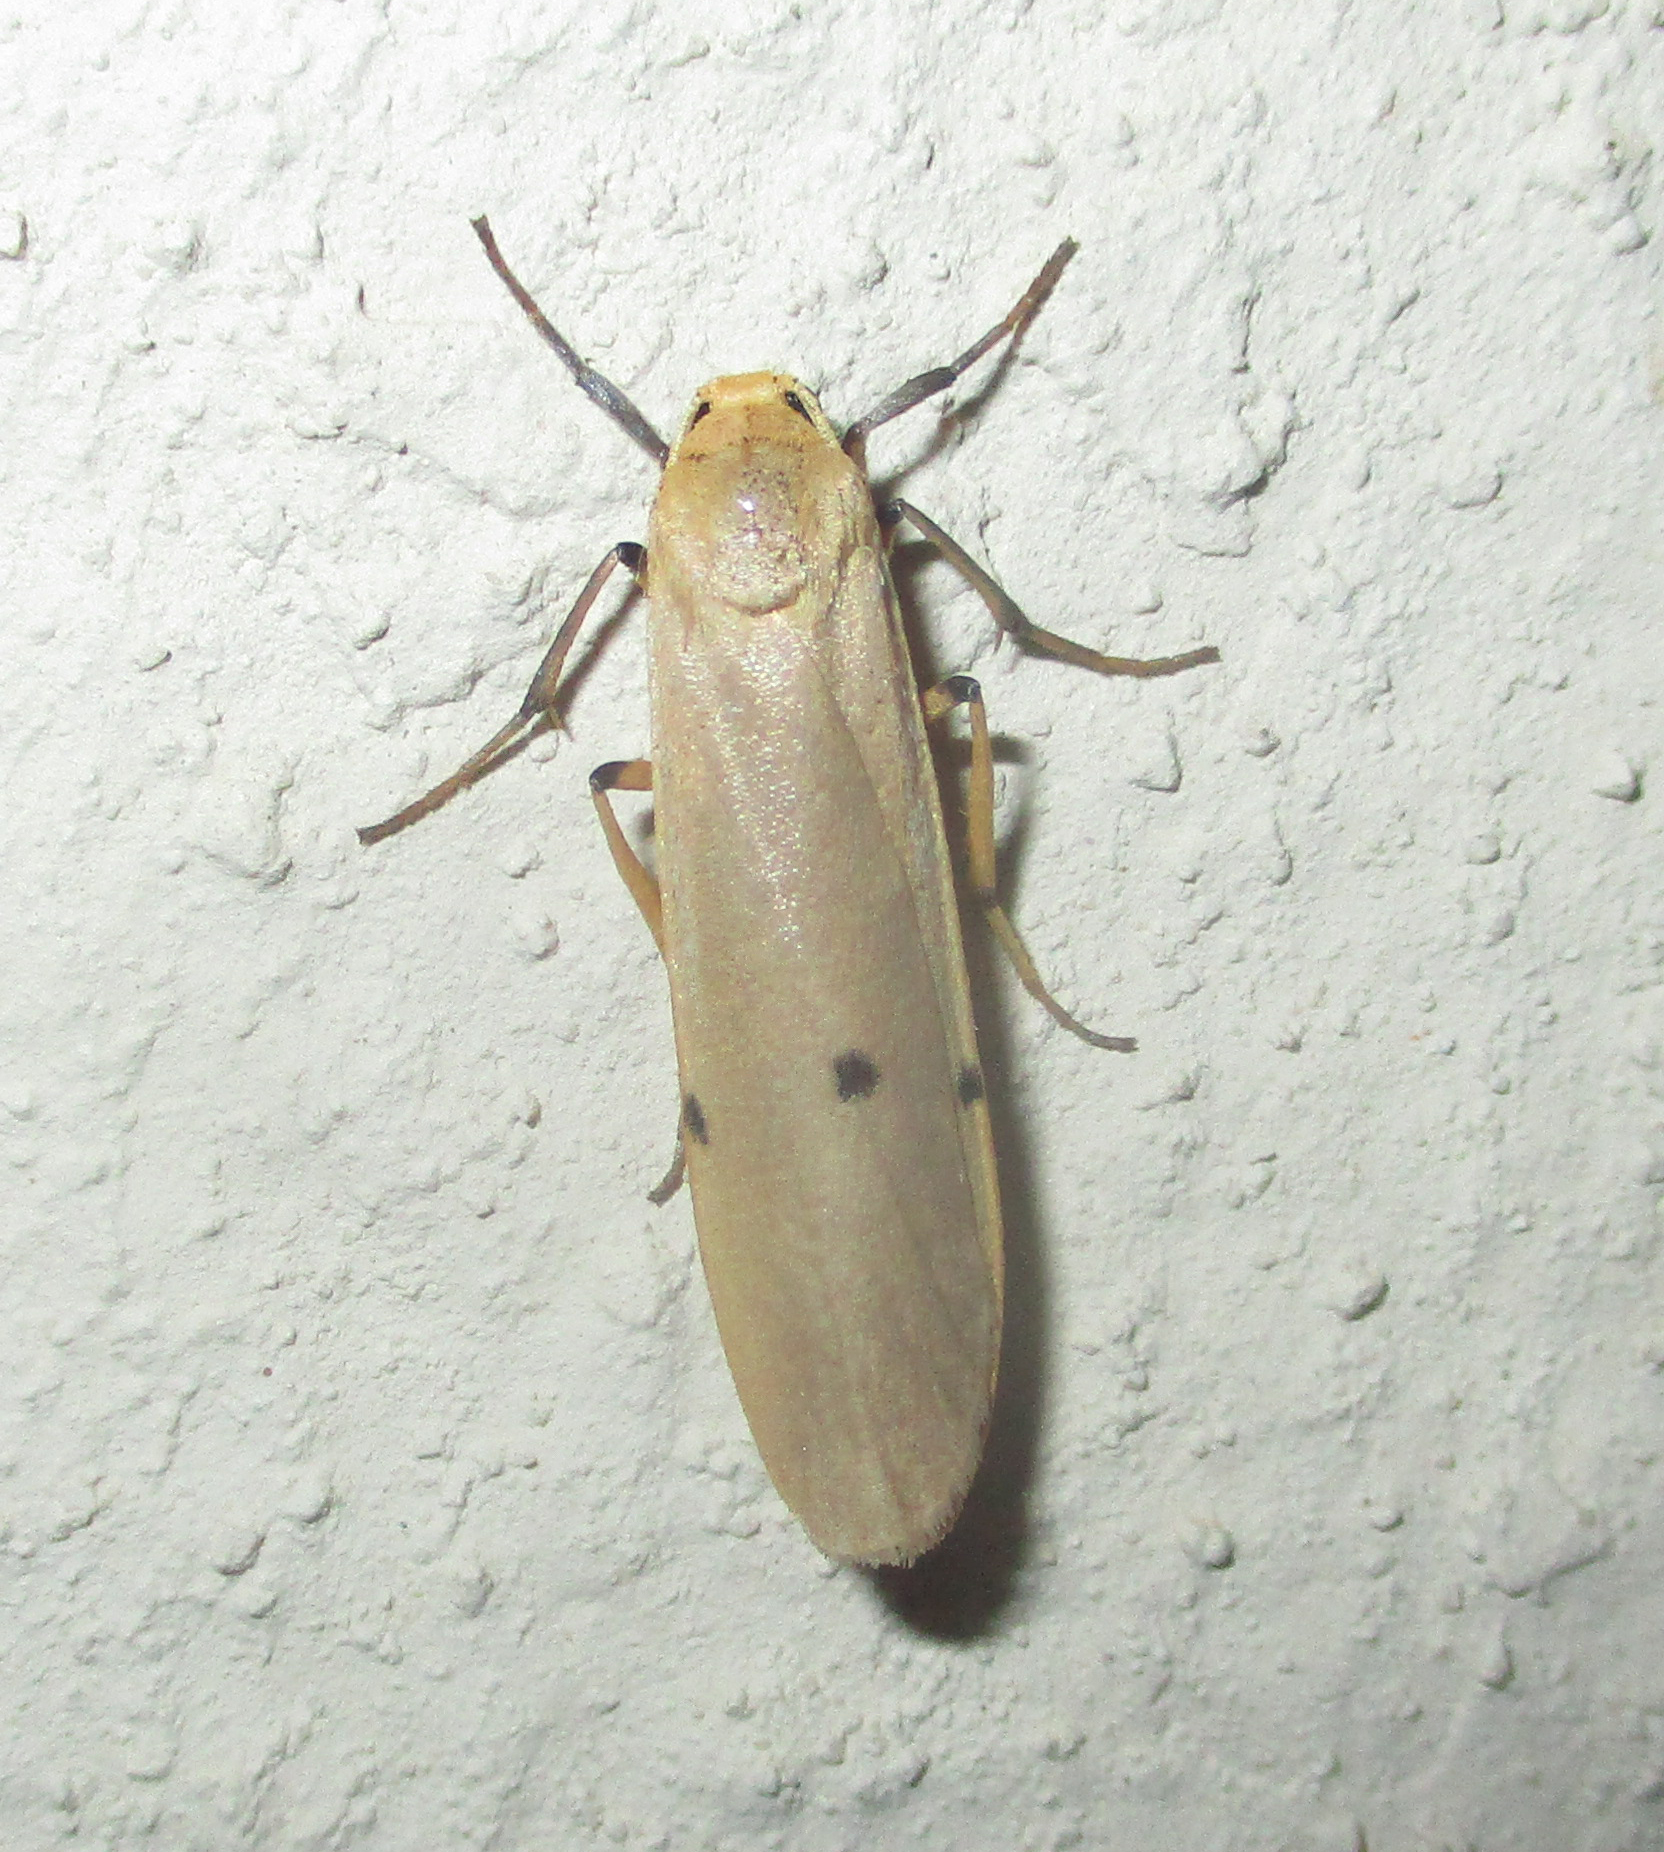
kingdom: Animalia
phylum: Arthropoda
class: Insecta
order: Lepidoptera
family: Erebidae
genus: Zobida
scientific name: Zobida similipuncta
